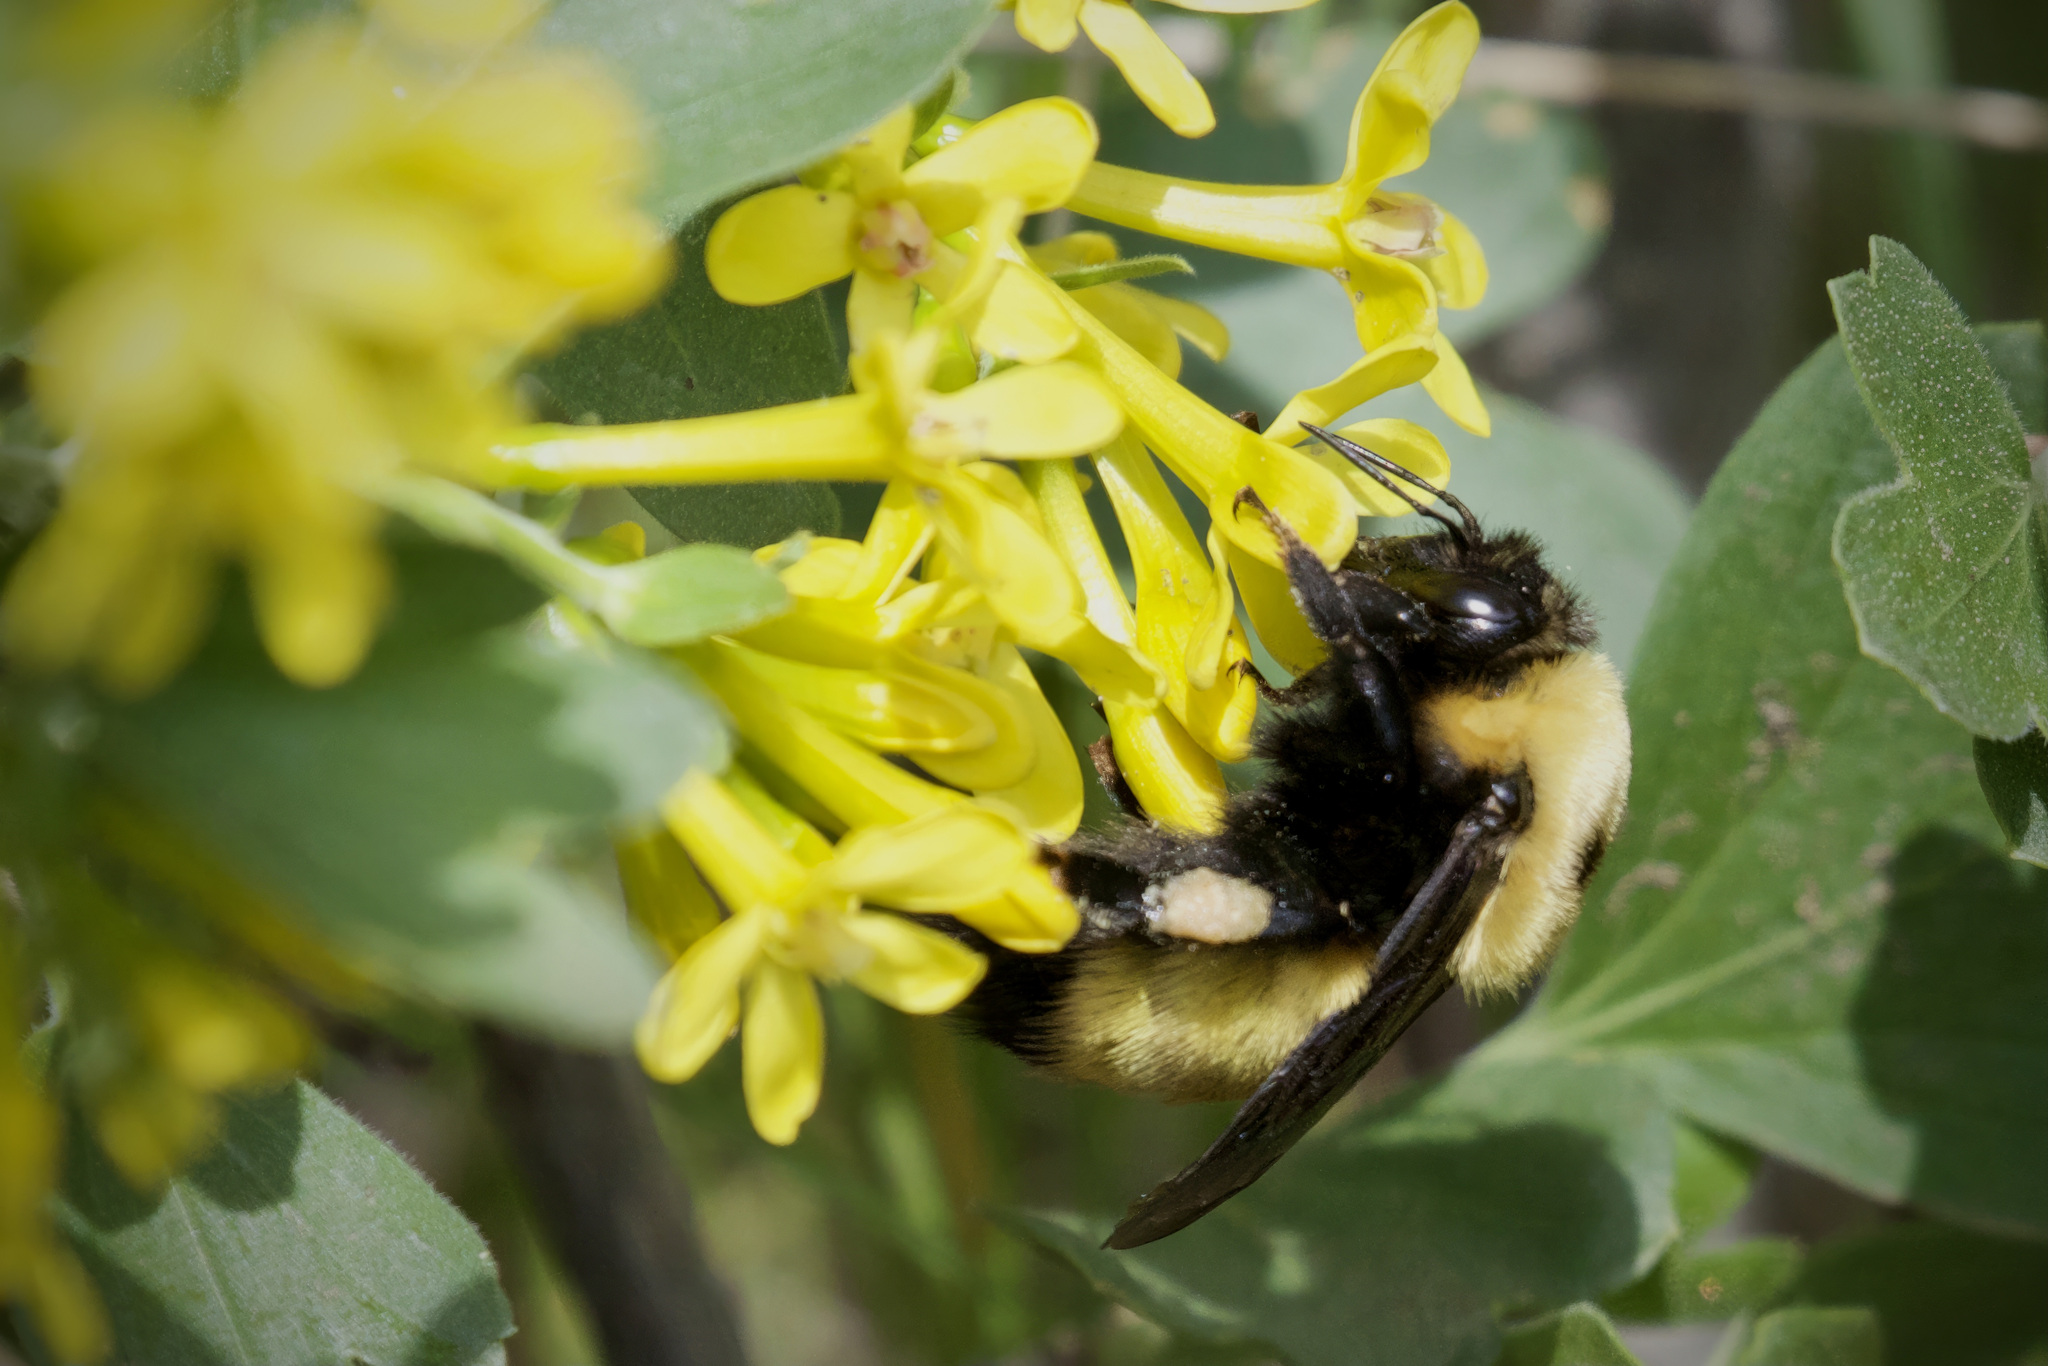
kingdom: Animalia
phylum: Arthropoda
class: Insecta
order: Hymenoptera
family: Apidae
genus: Bombus
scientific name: Bombus nevadensis
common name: Nevada bumble bee
